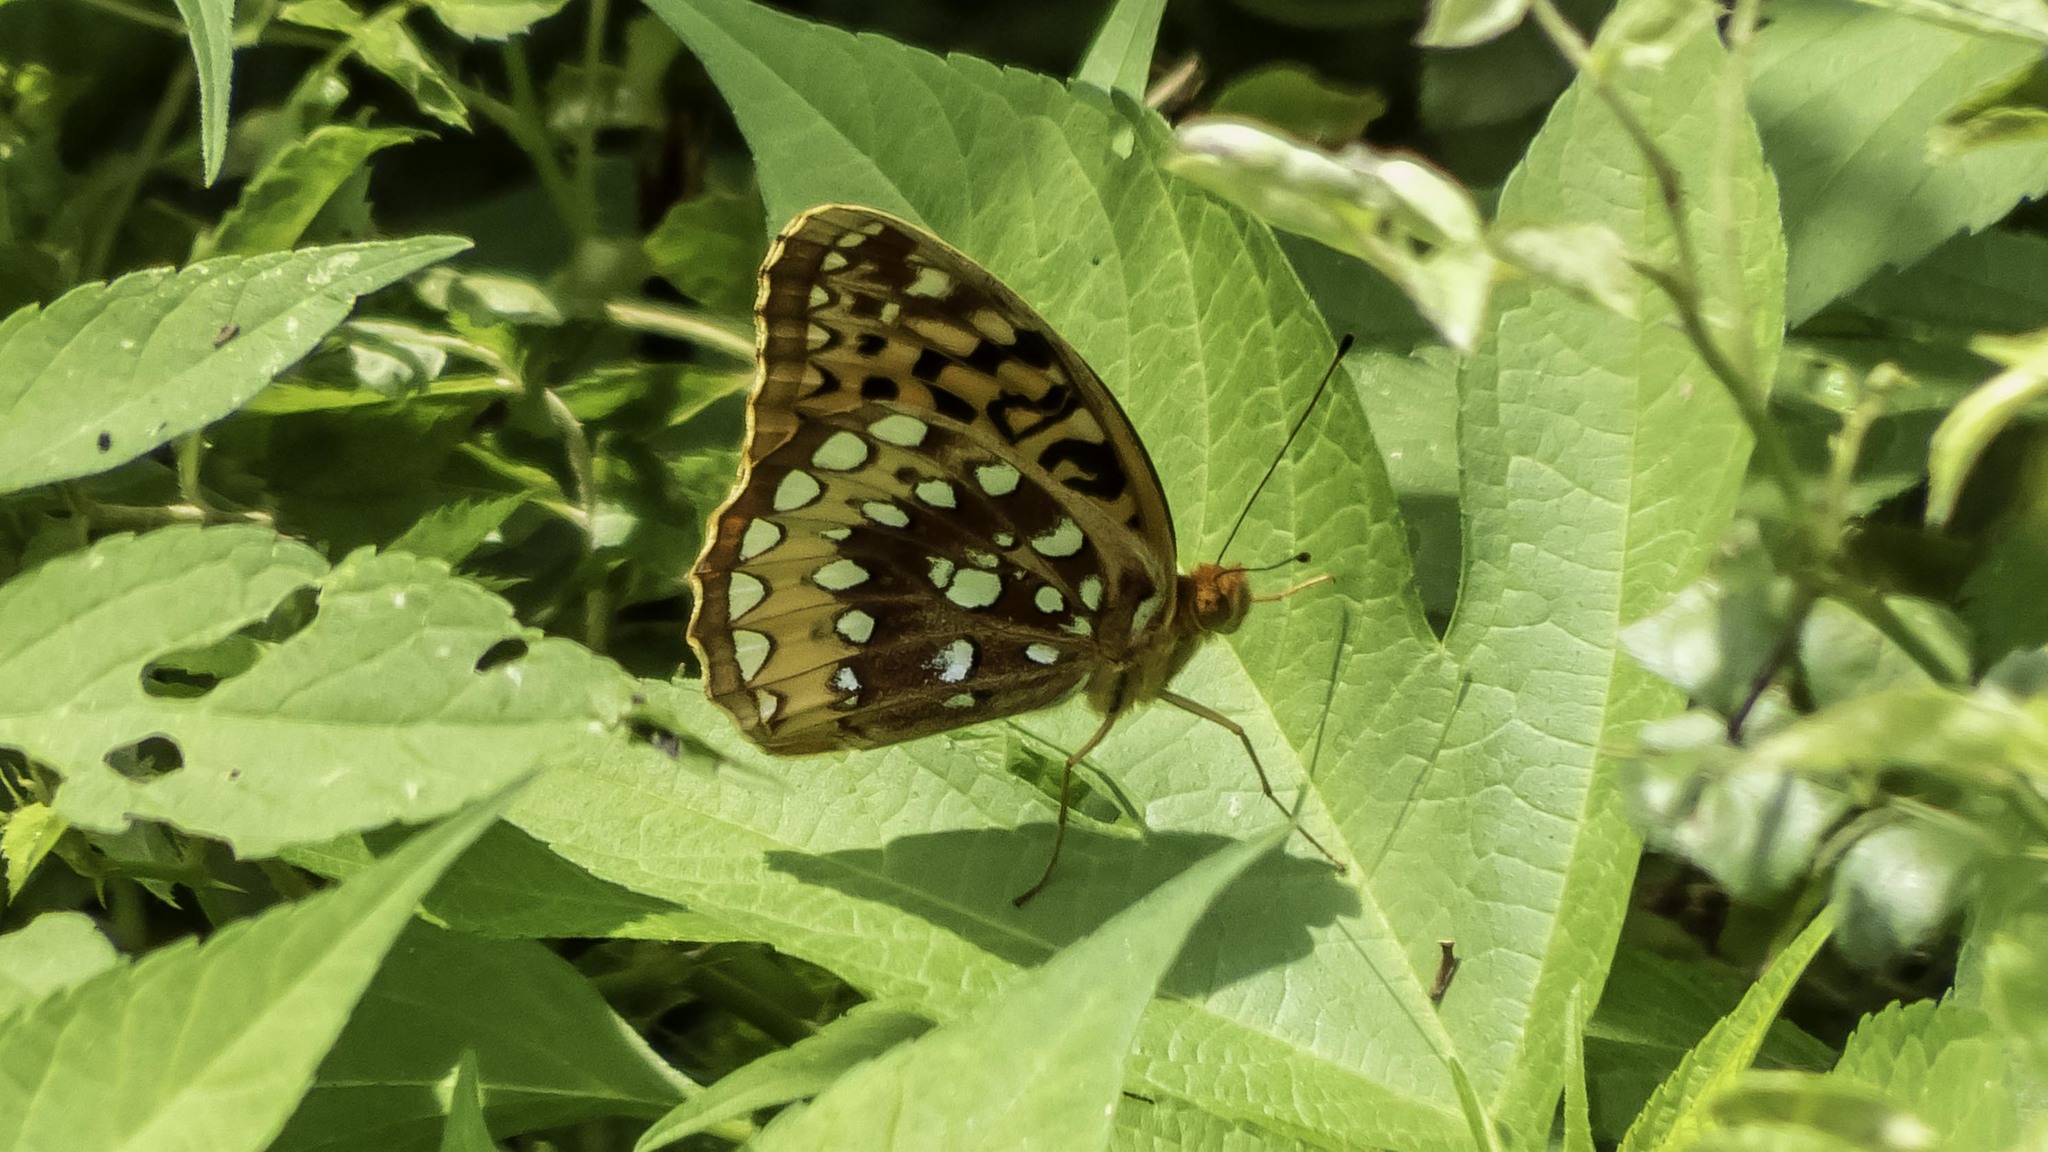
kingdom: Animalia
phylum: Arthropoda
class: Insecta
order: Lepidoptera
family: Nymphalidae
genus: Speyeria
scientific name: Speyeria cybele
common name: Great spangled fritillary
